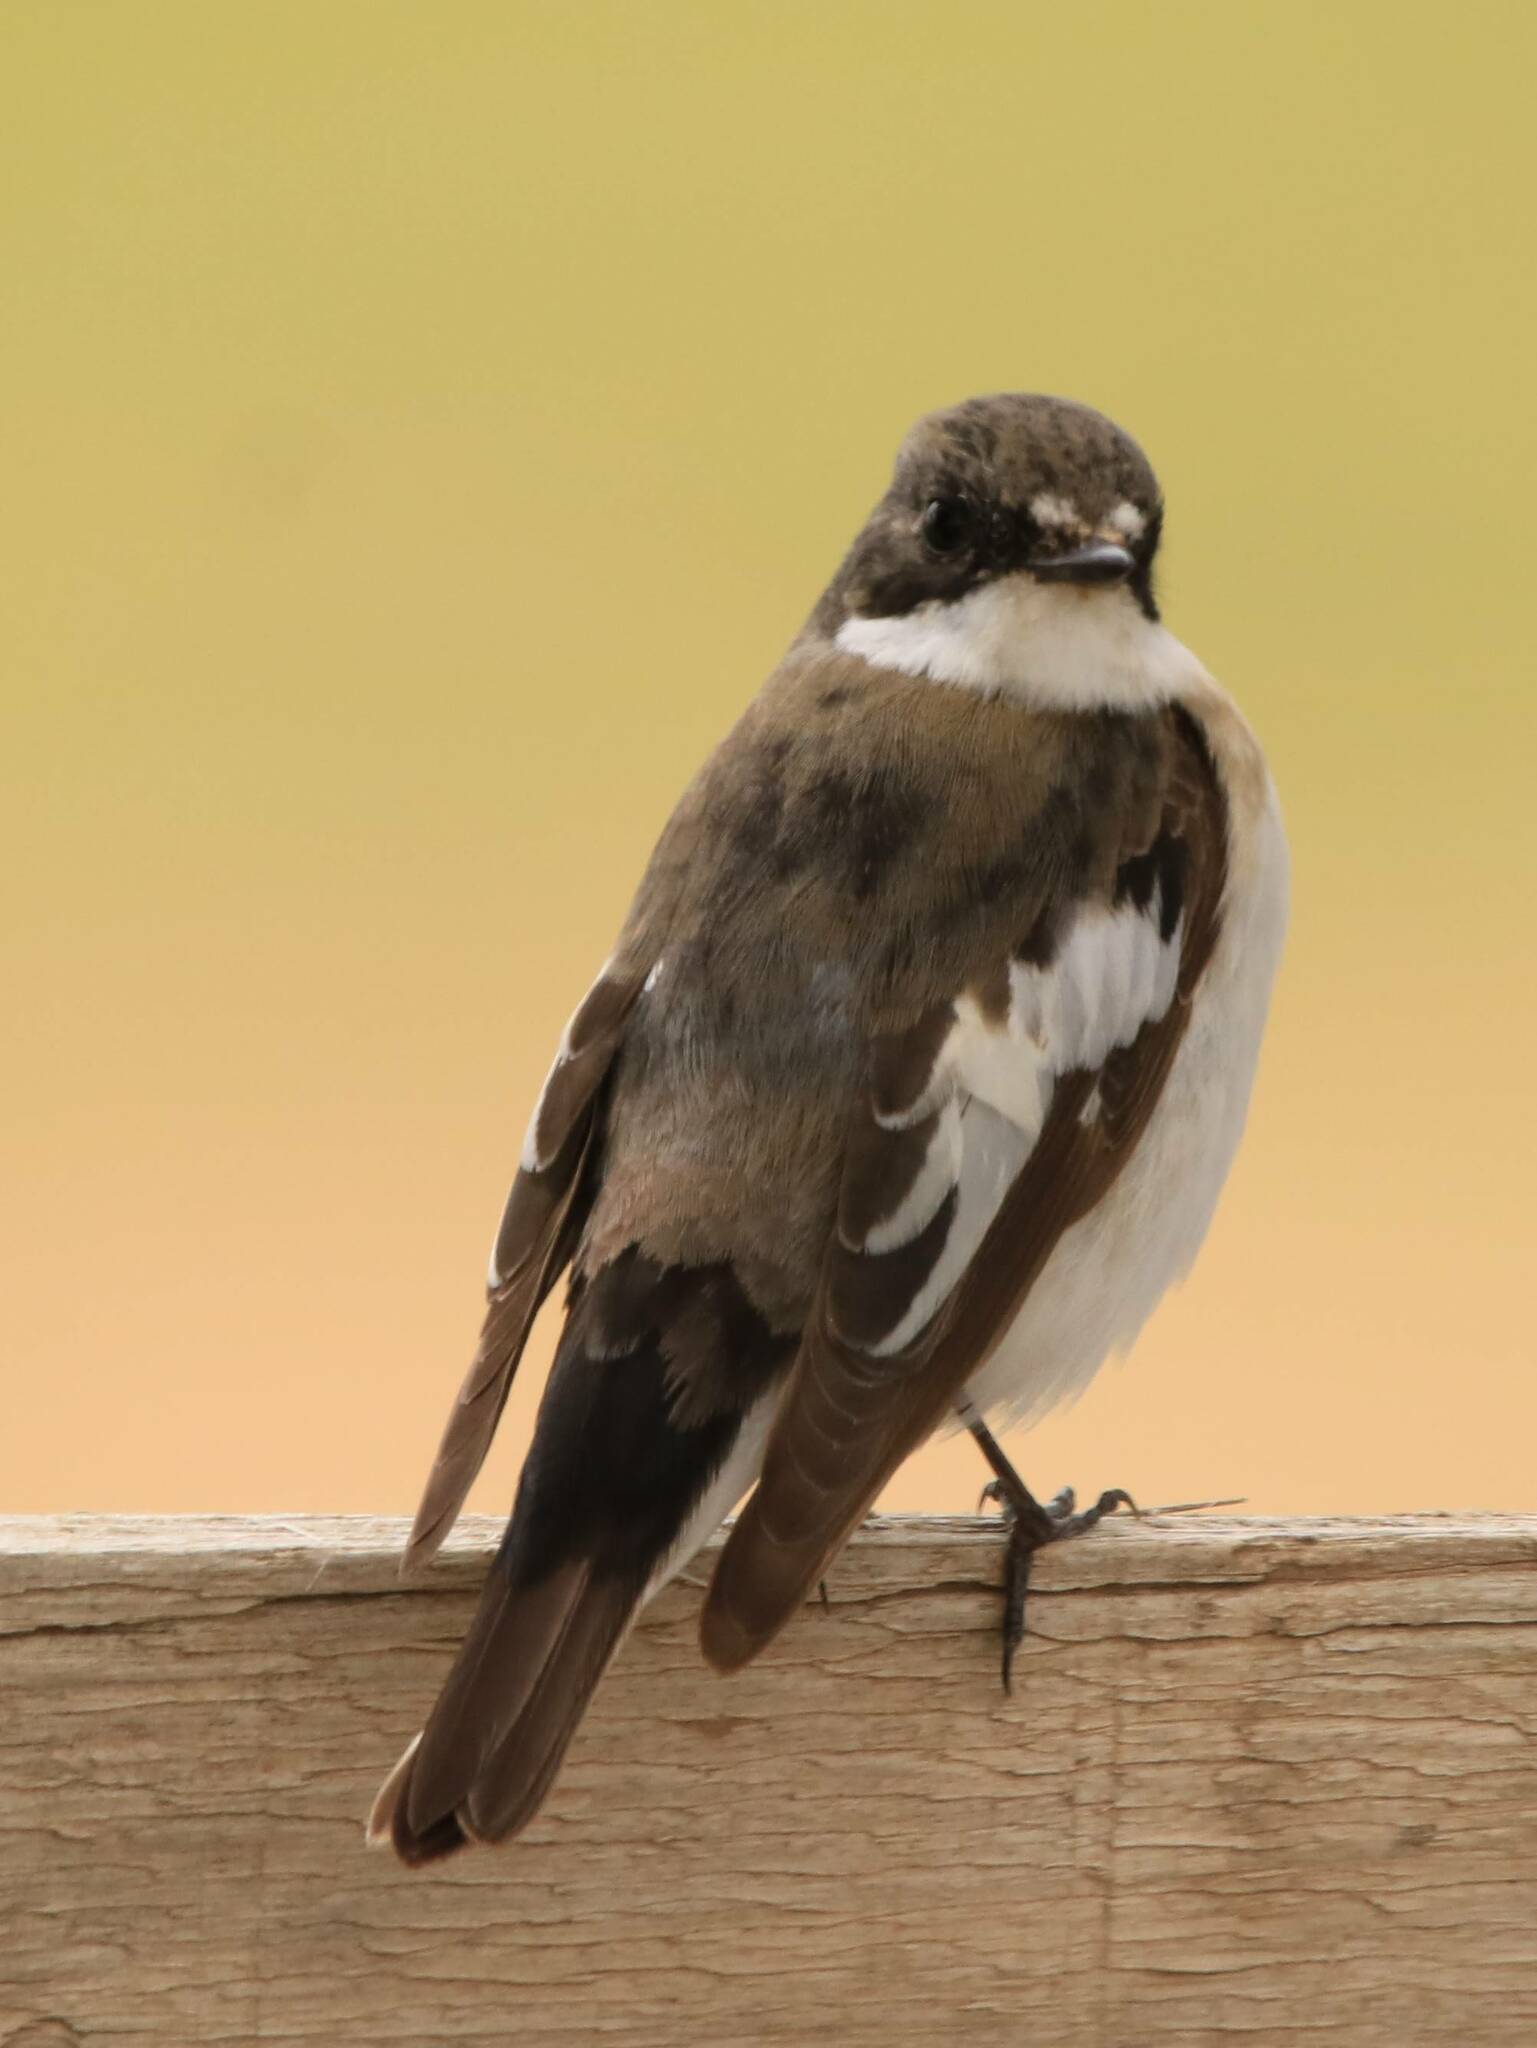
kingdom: Animalia
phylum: Chordata
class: Aves
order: Passeriformes
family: Muscicapidae
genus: Ficedula
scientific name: Ficedula hypoleuca
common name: European pied flycatcher
